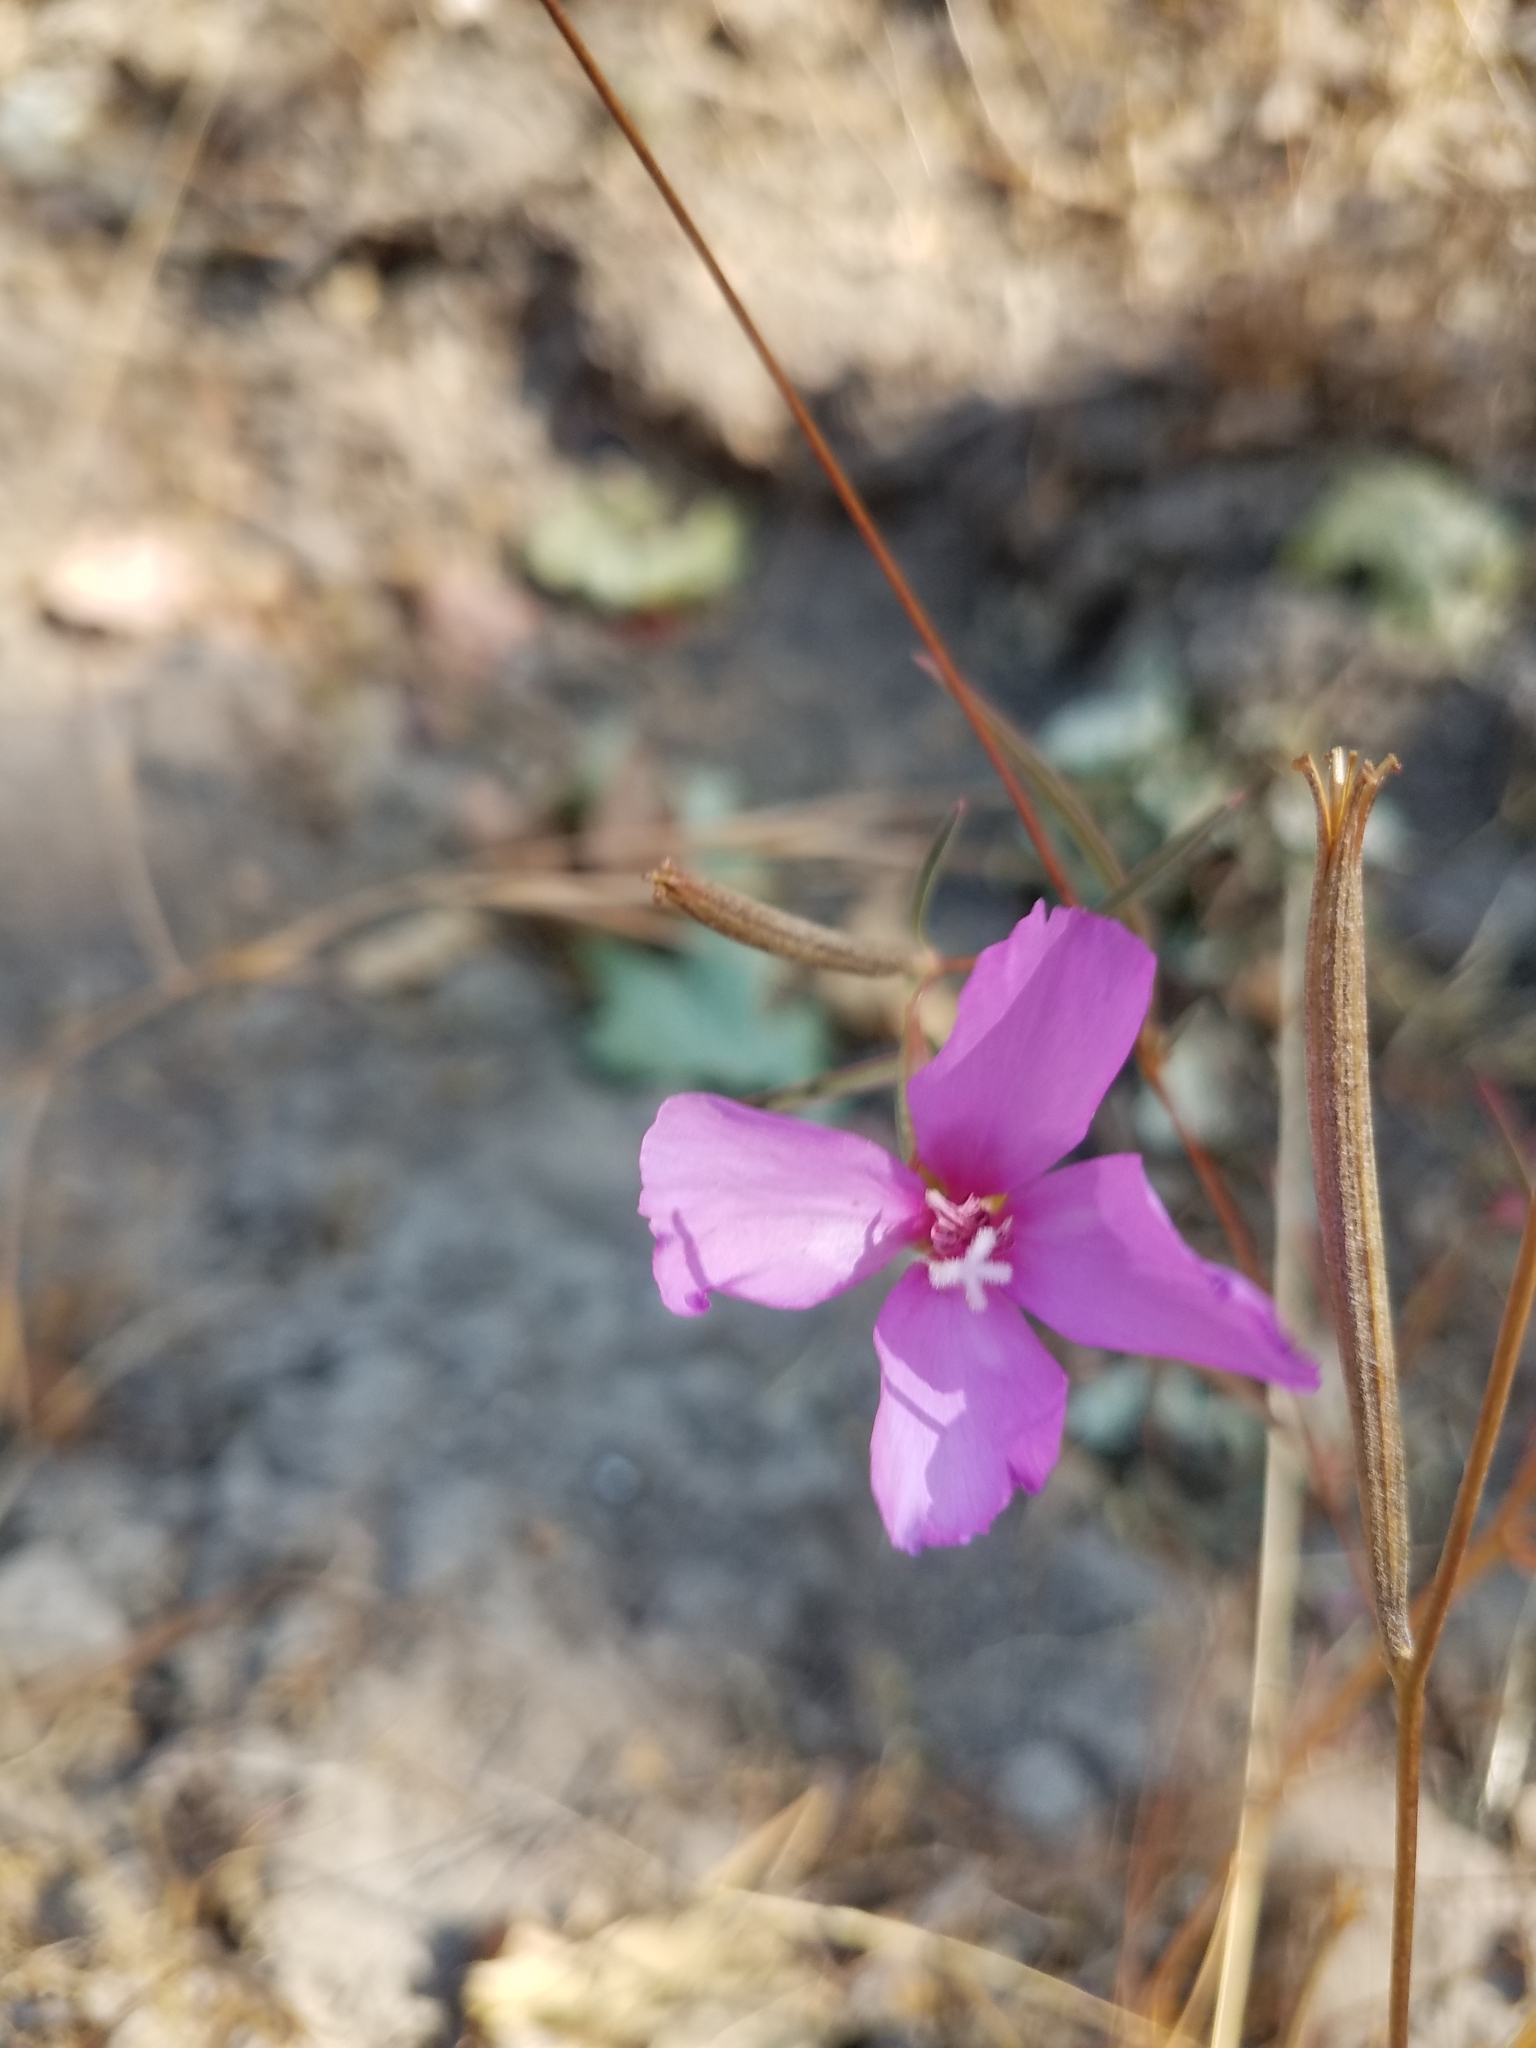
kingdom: Plantae
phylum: Tracheophyta
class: Magnoliopsida
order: Myrtales
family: Onagraceae
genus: Clarkia
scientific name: Clarkia rubicunda
